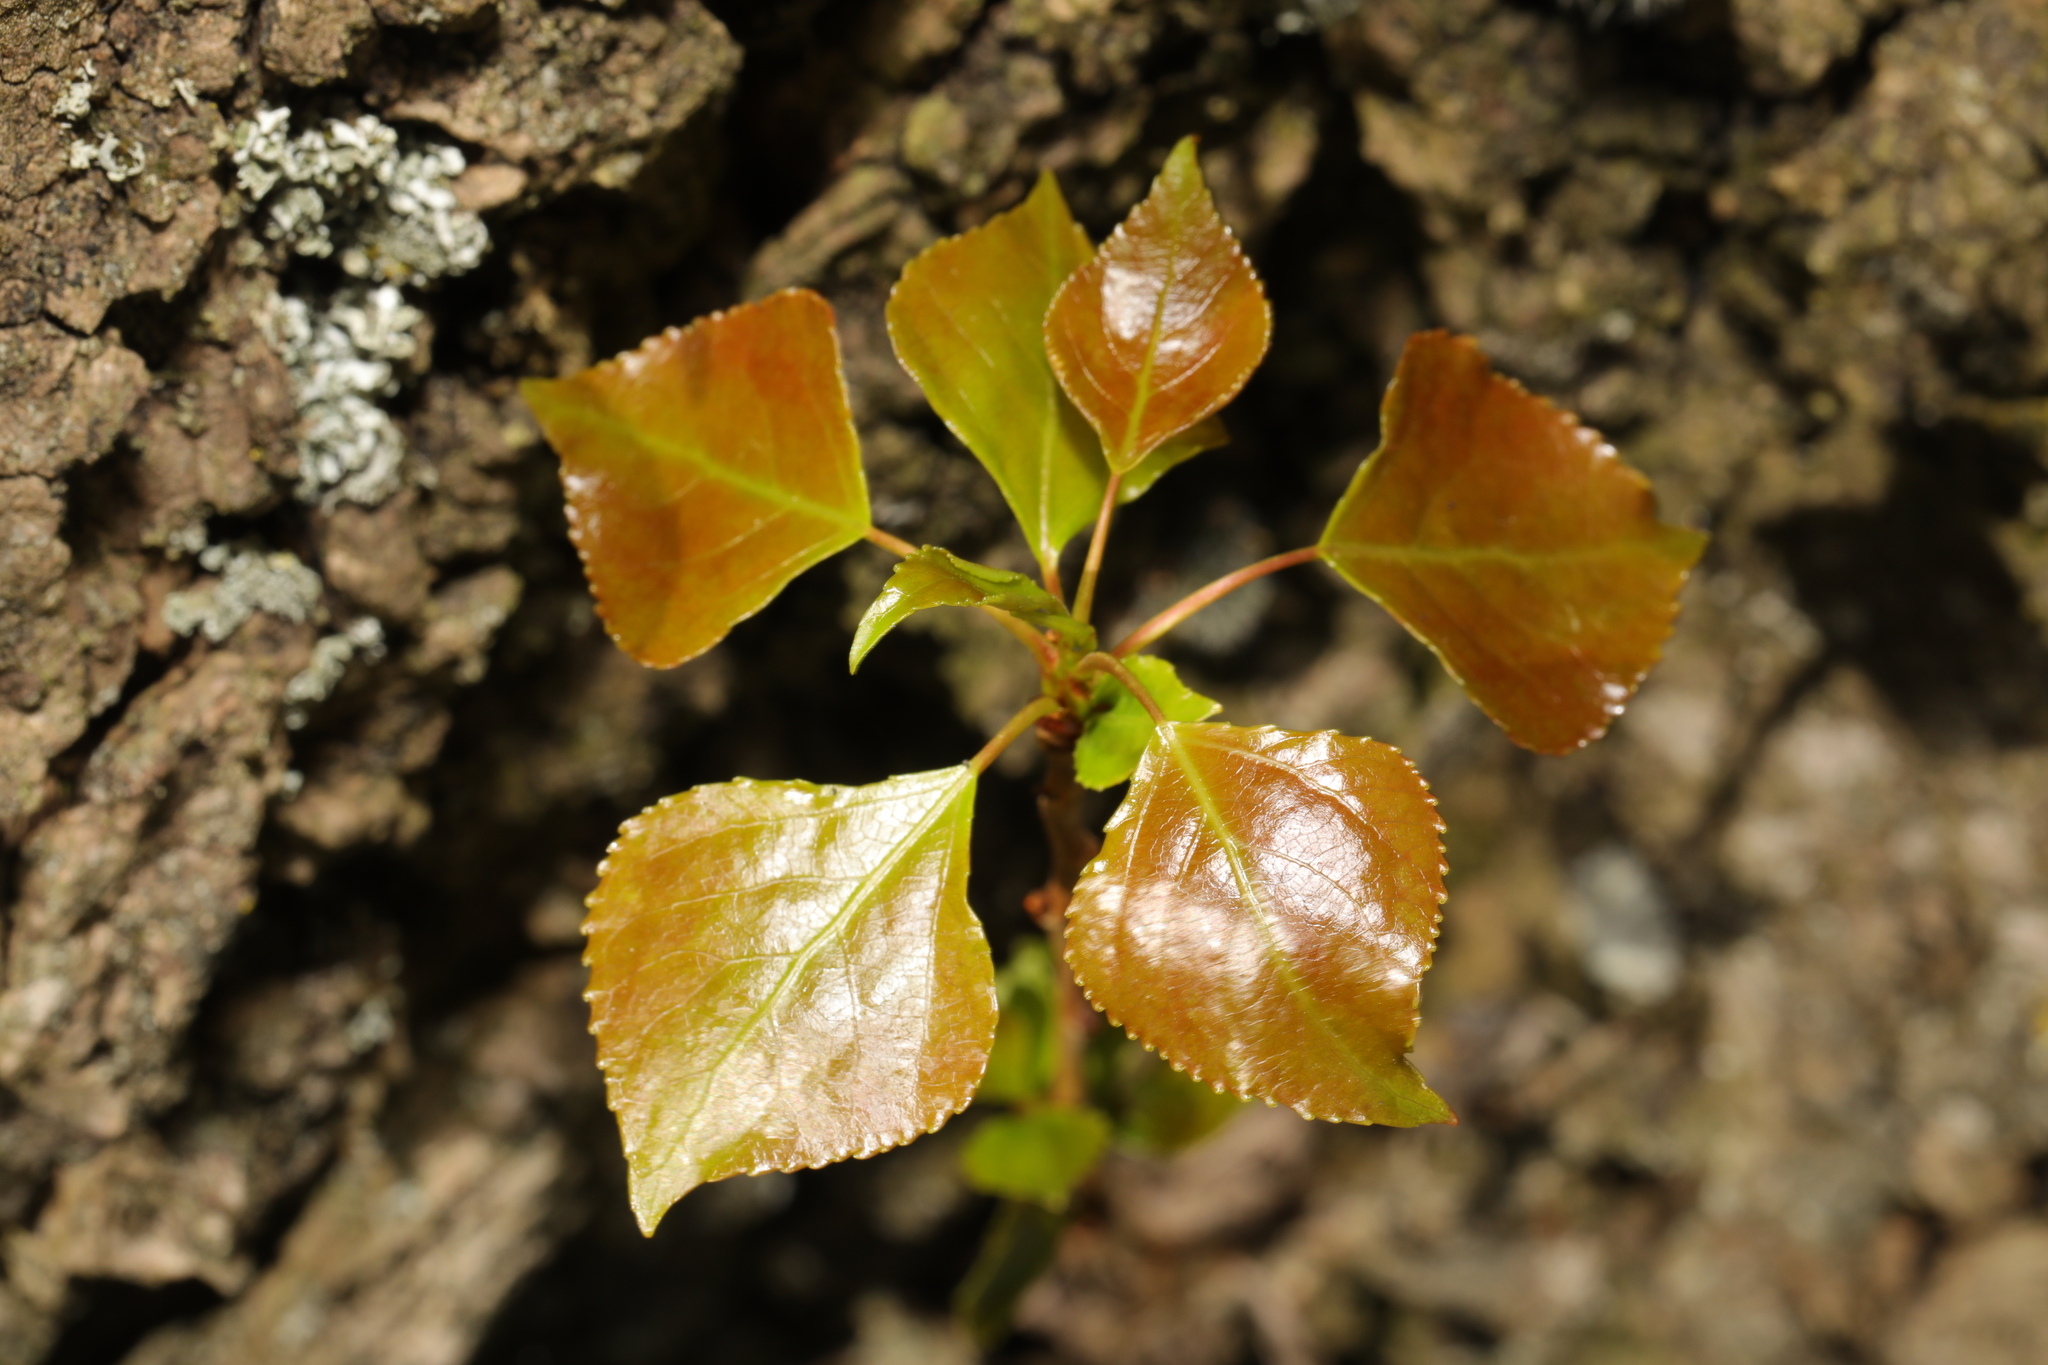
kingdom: Plantae
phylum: Tracheophyta
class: Magnoliopsida
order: Malpighiales
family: Salicaceae
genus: Populus
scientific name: Populus nigra
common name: Black poplar
